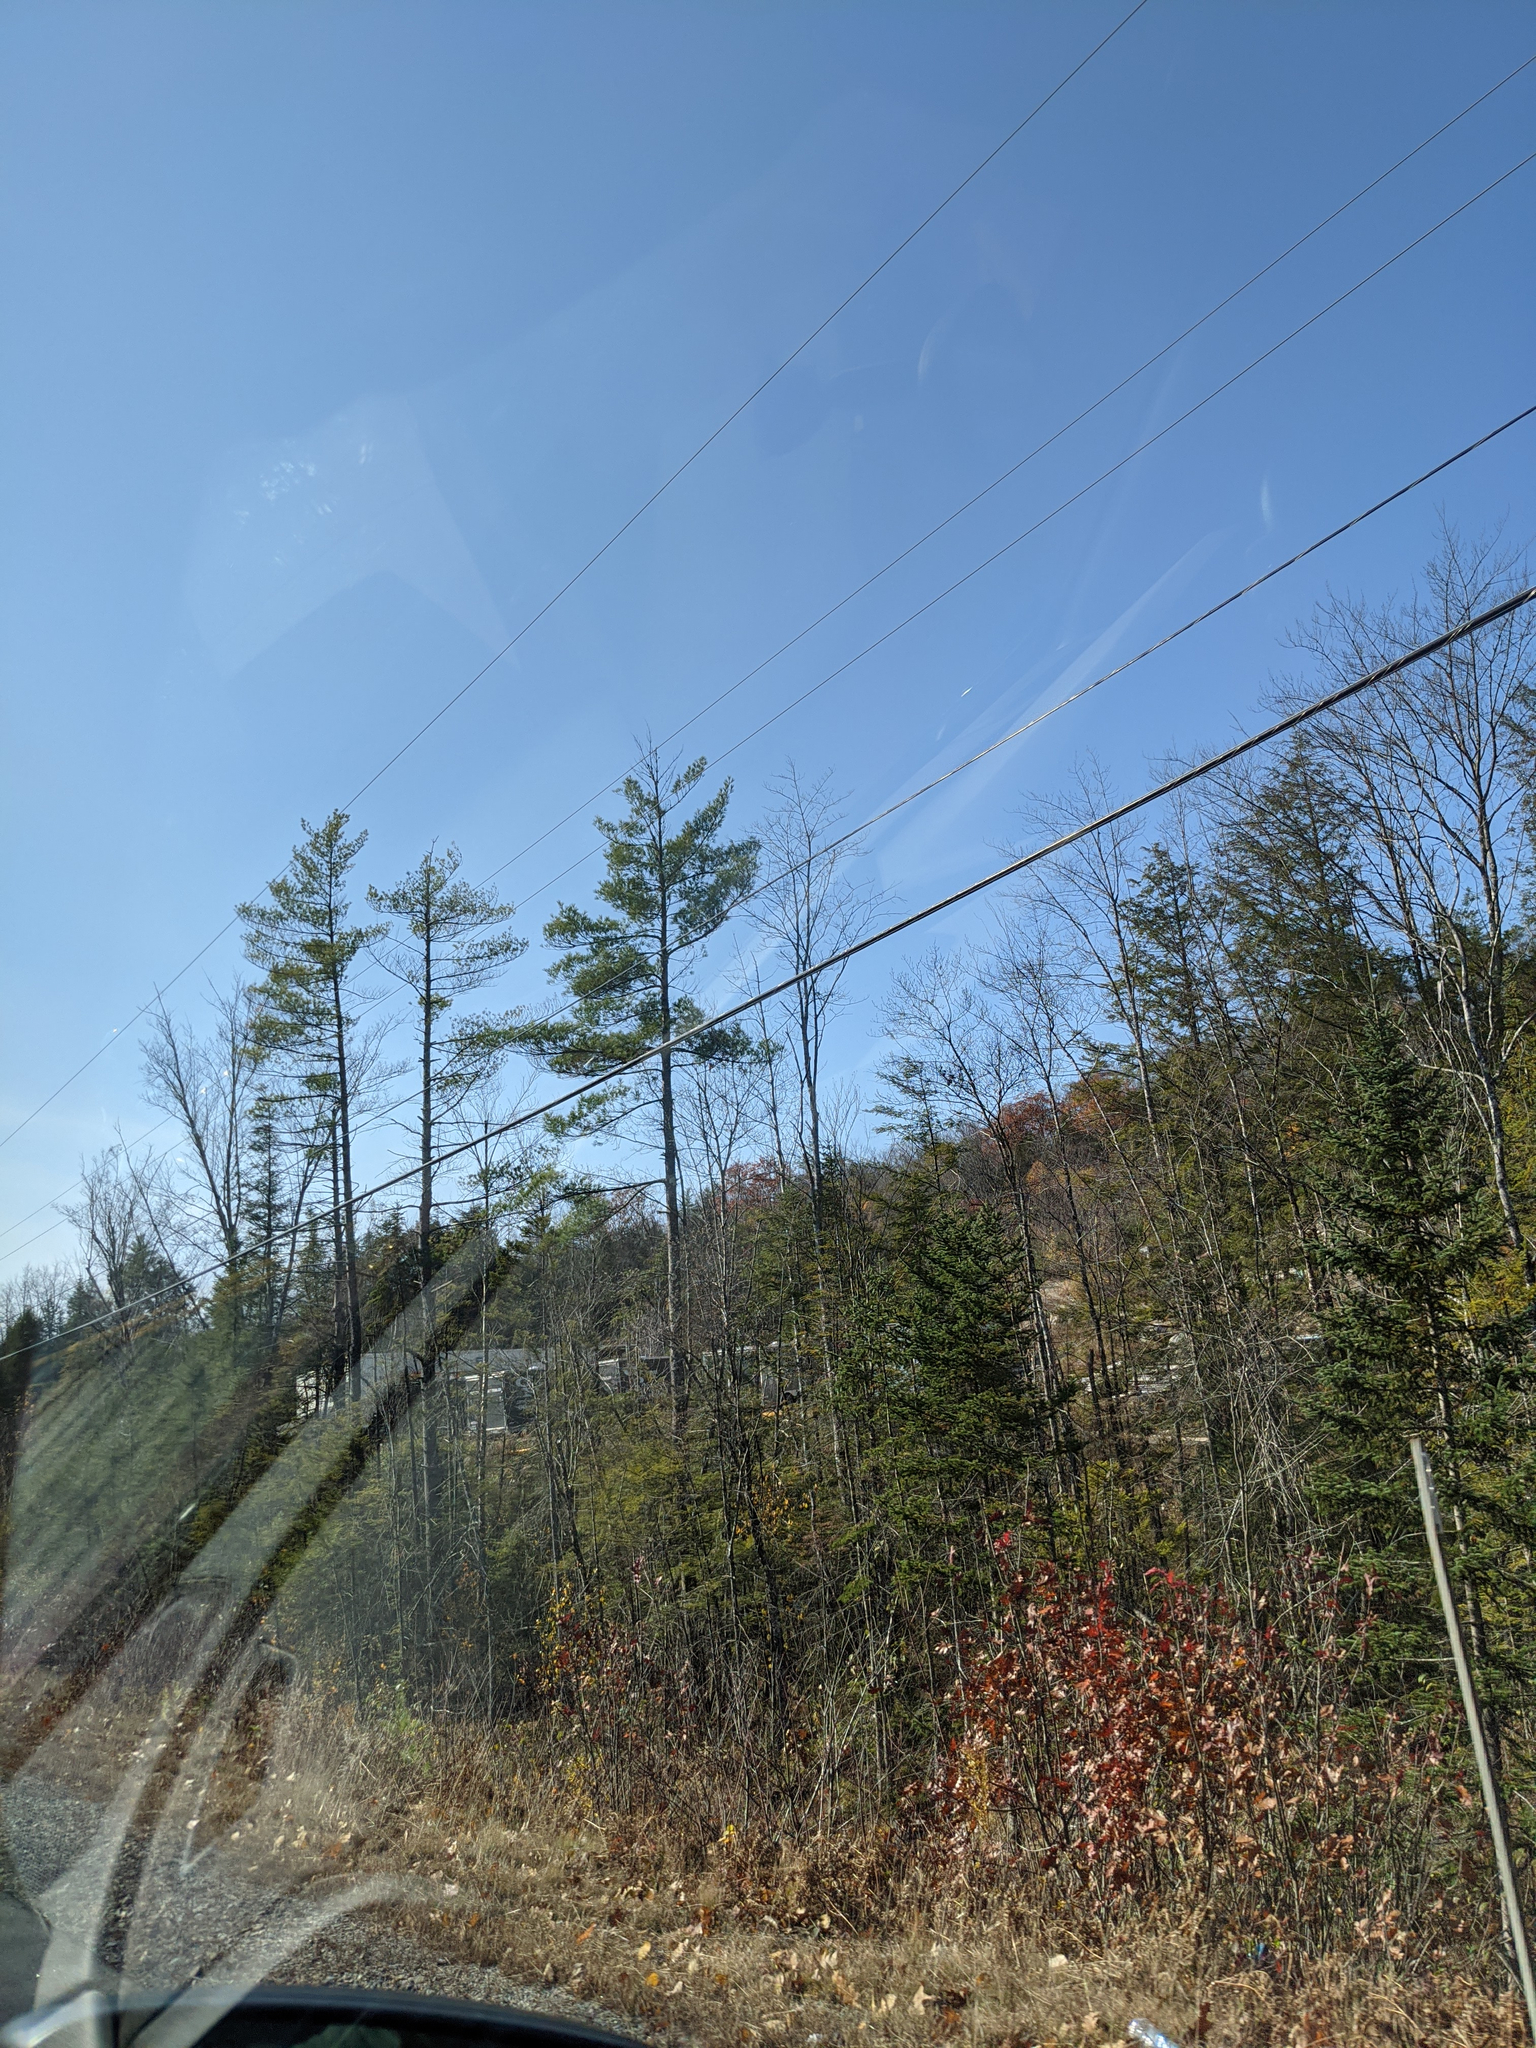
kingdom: Plantae
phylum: Tracheophyta
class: Pinopsida
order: Pinales
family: Pinaceae
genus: Pinus
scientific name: Pinus strobus
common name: Weymouth pine
